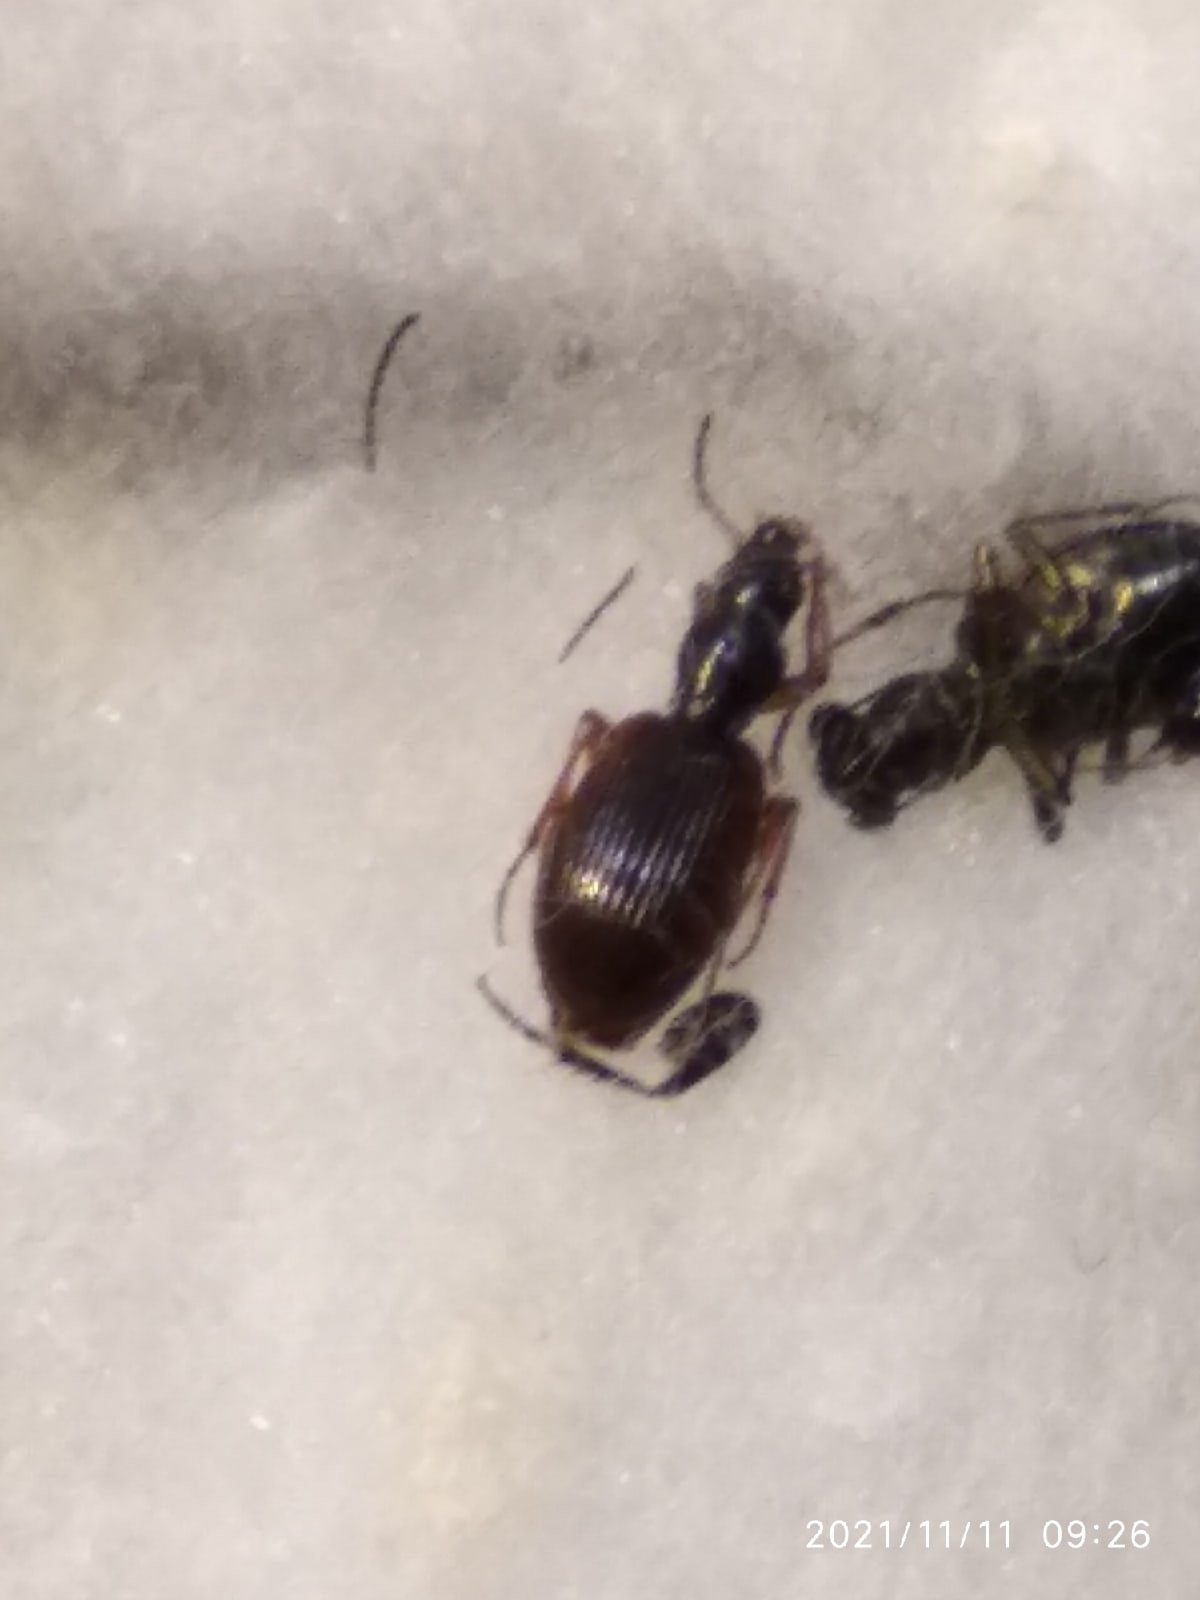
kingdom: Animalia
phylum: Arthropoda
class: Insecta
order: Coleoptera
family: Carabidae
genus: Oxypselaphus
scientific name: Oxypselaphus obscurus
